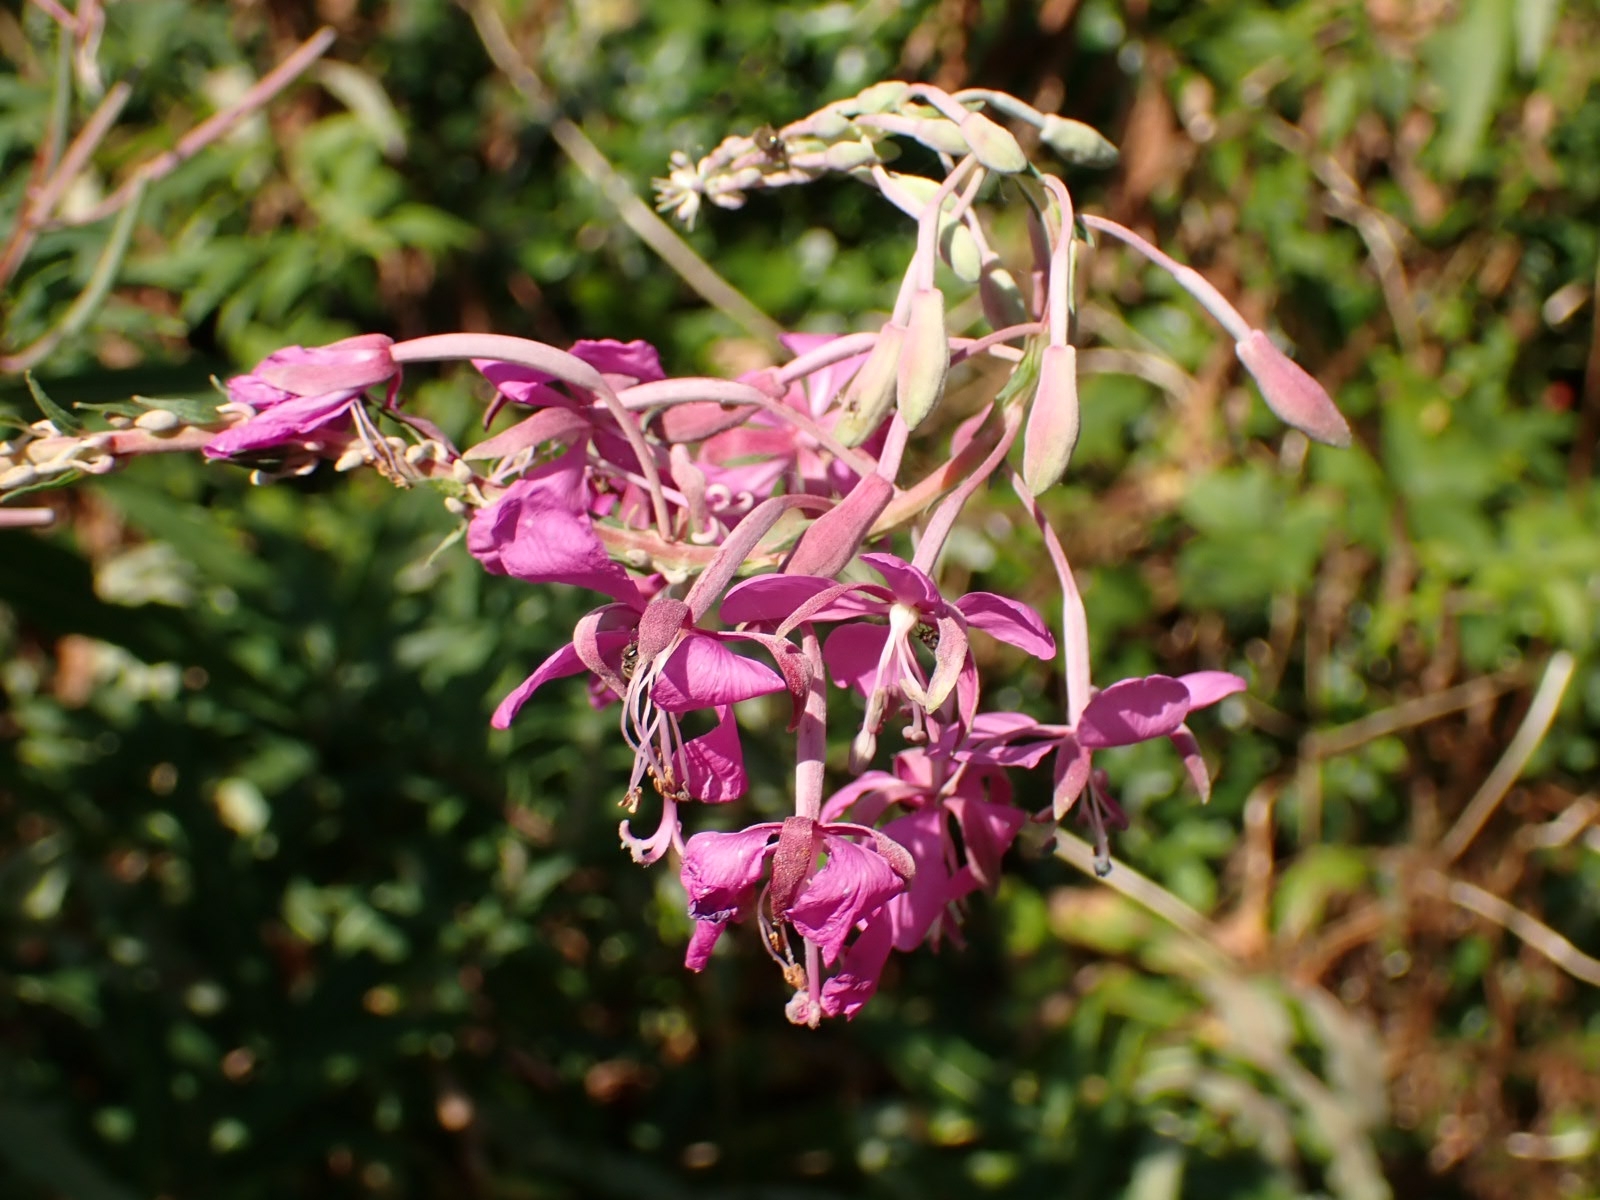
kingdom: Plantae
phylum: Tracheophyta
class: Magnoliopsida
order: Myrtales
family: Onagraceae
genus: Chamaenerion
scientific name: Chamaenerion angustifolium
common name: Fireweed
